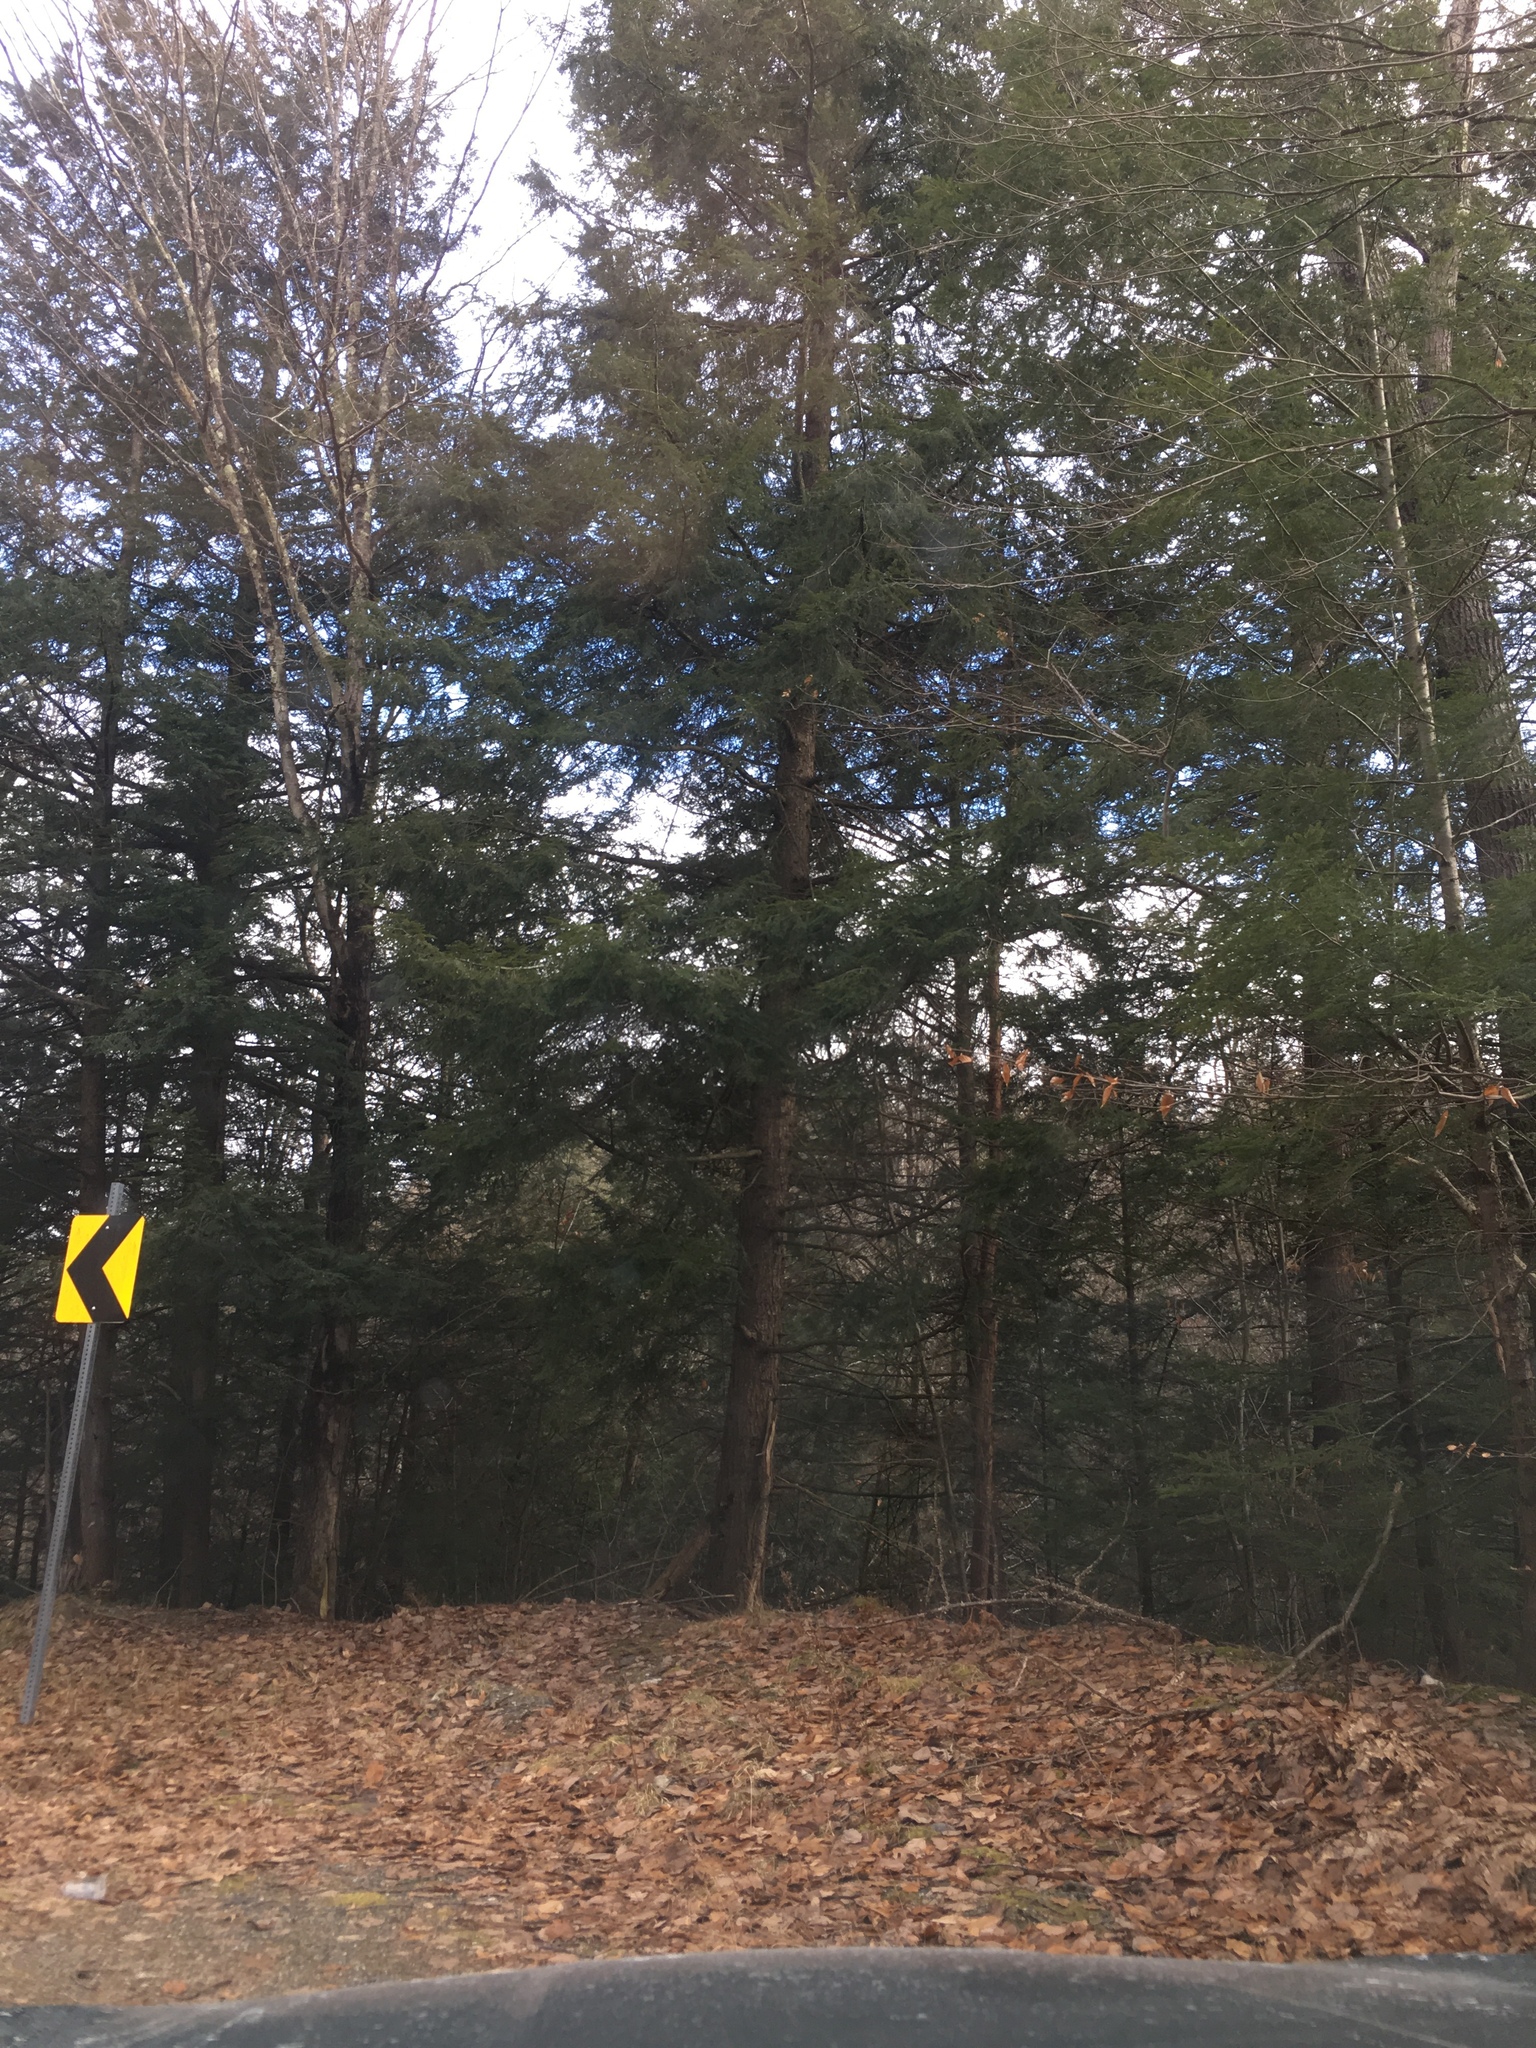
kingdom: Plantae
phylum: Tracheophyta
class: Pinopsida
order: Pinales
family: Pinaceae
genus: Tsuga
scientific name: Tsuga canadensis
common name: Eastern hemlock
